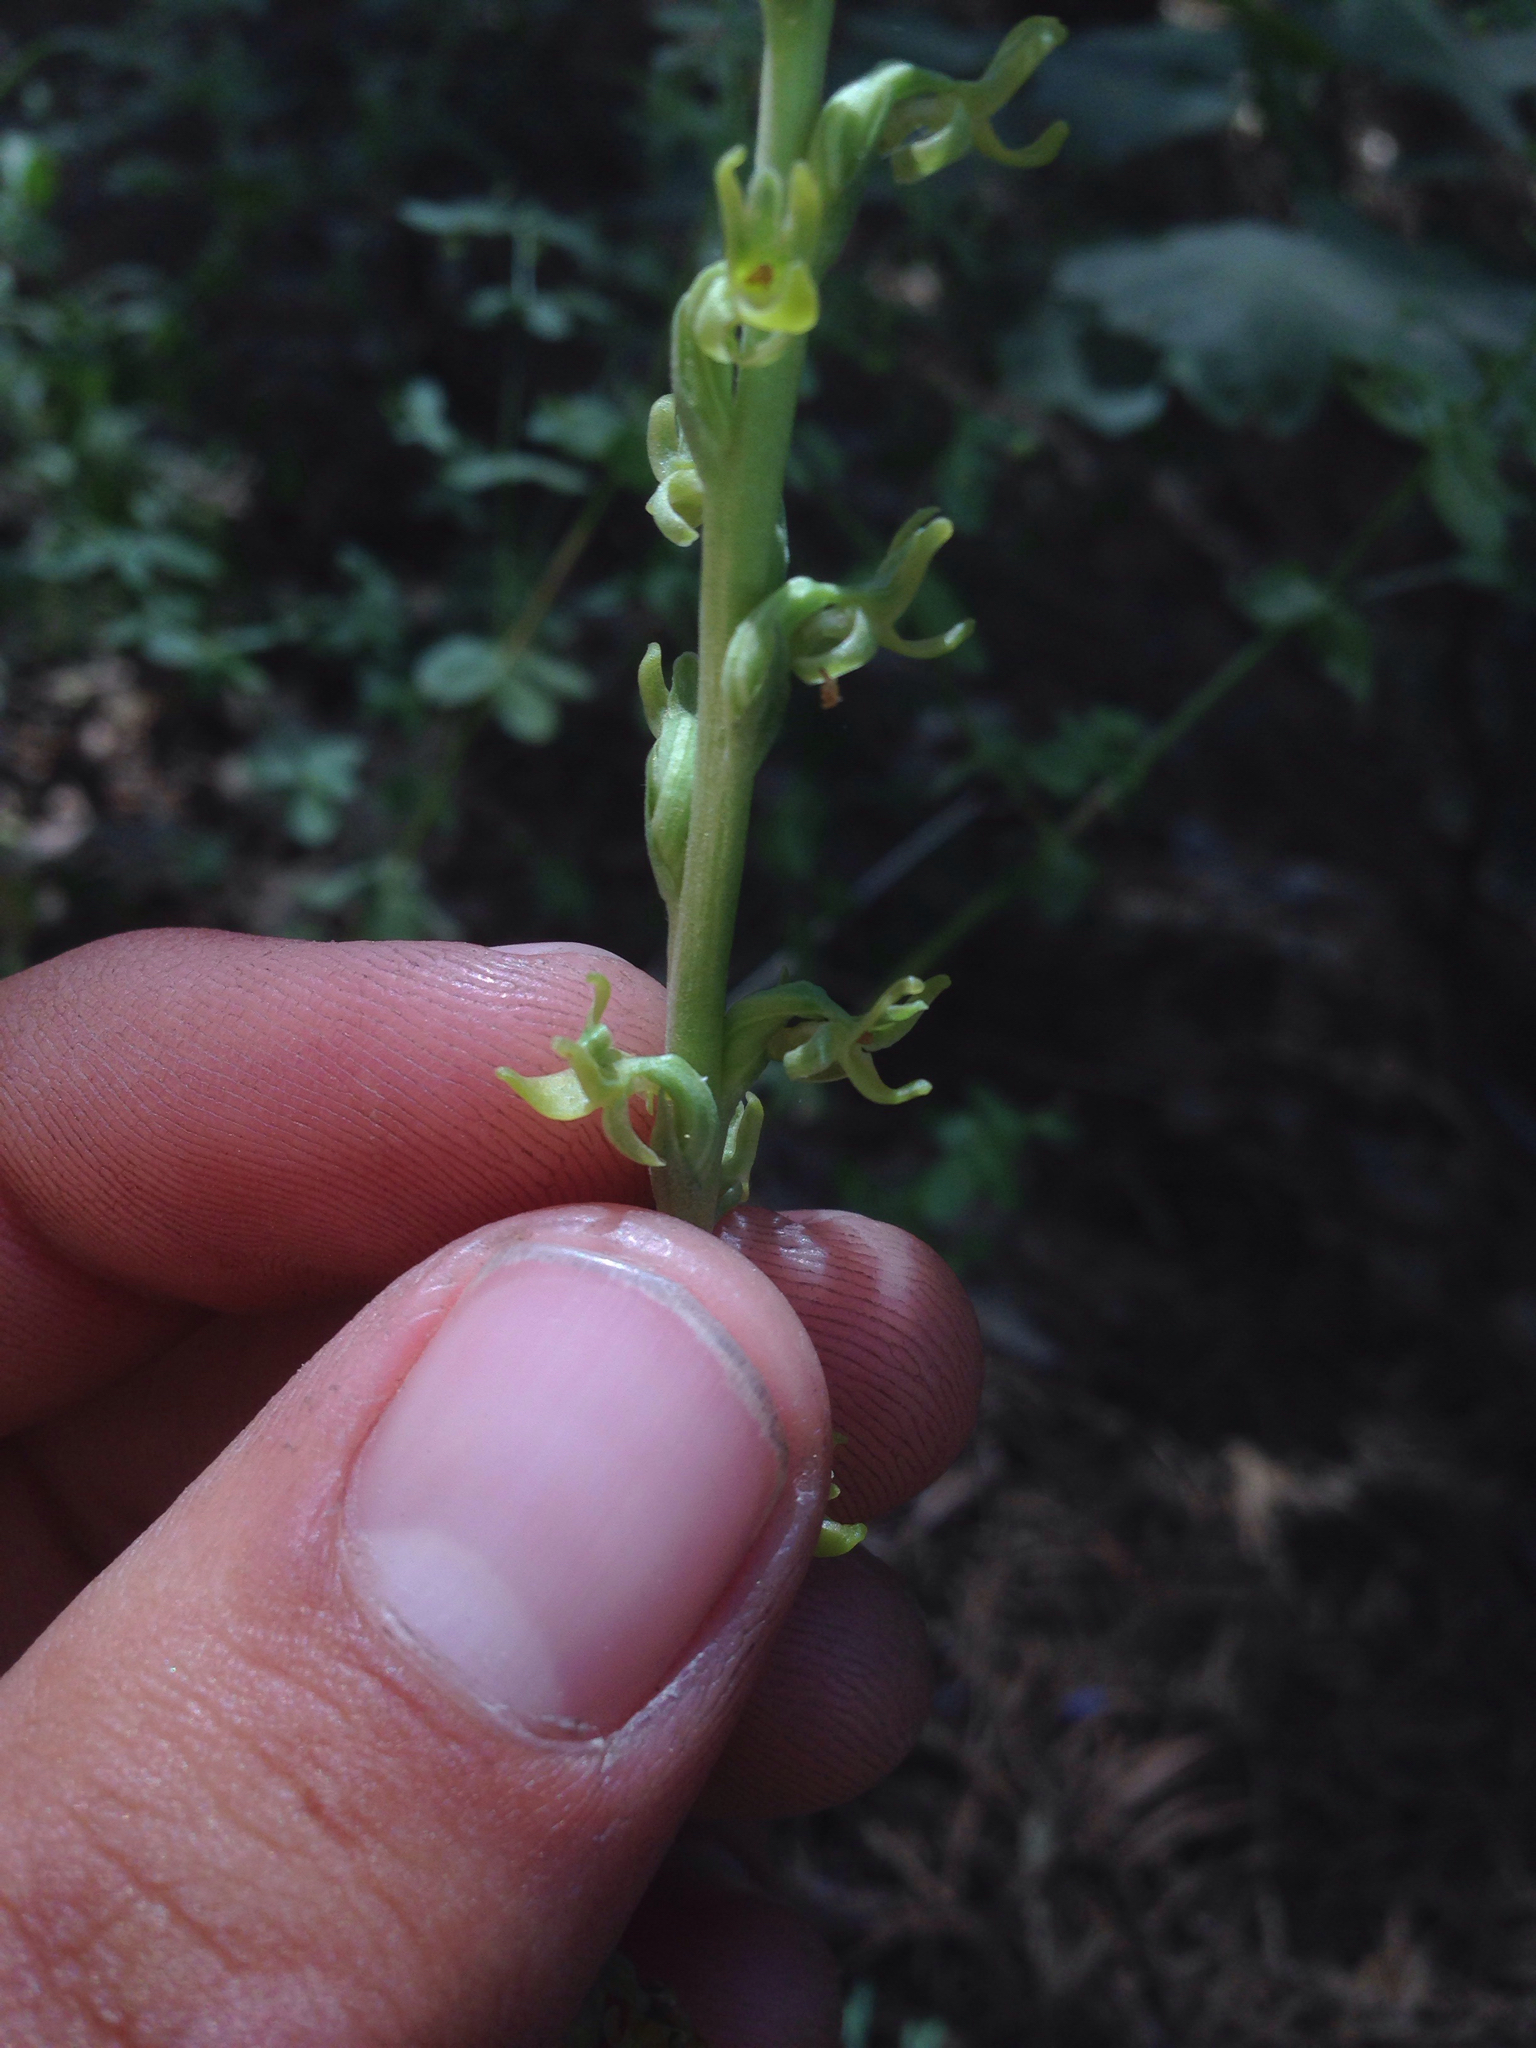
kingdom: Plantae
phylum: Tracheophyta
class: Liliopsida
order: Asparagales
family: Orchidaceae
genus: Platanthera
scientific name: Platanthera colemanii
